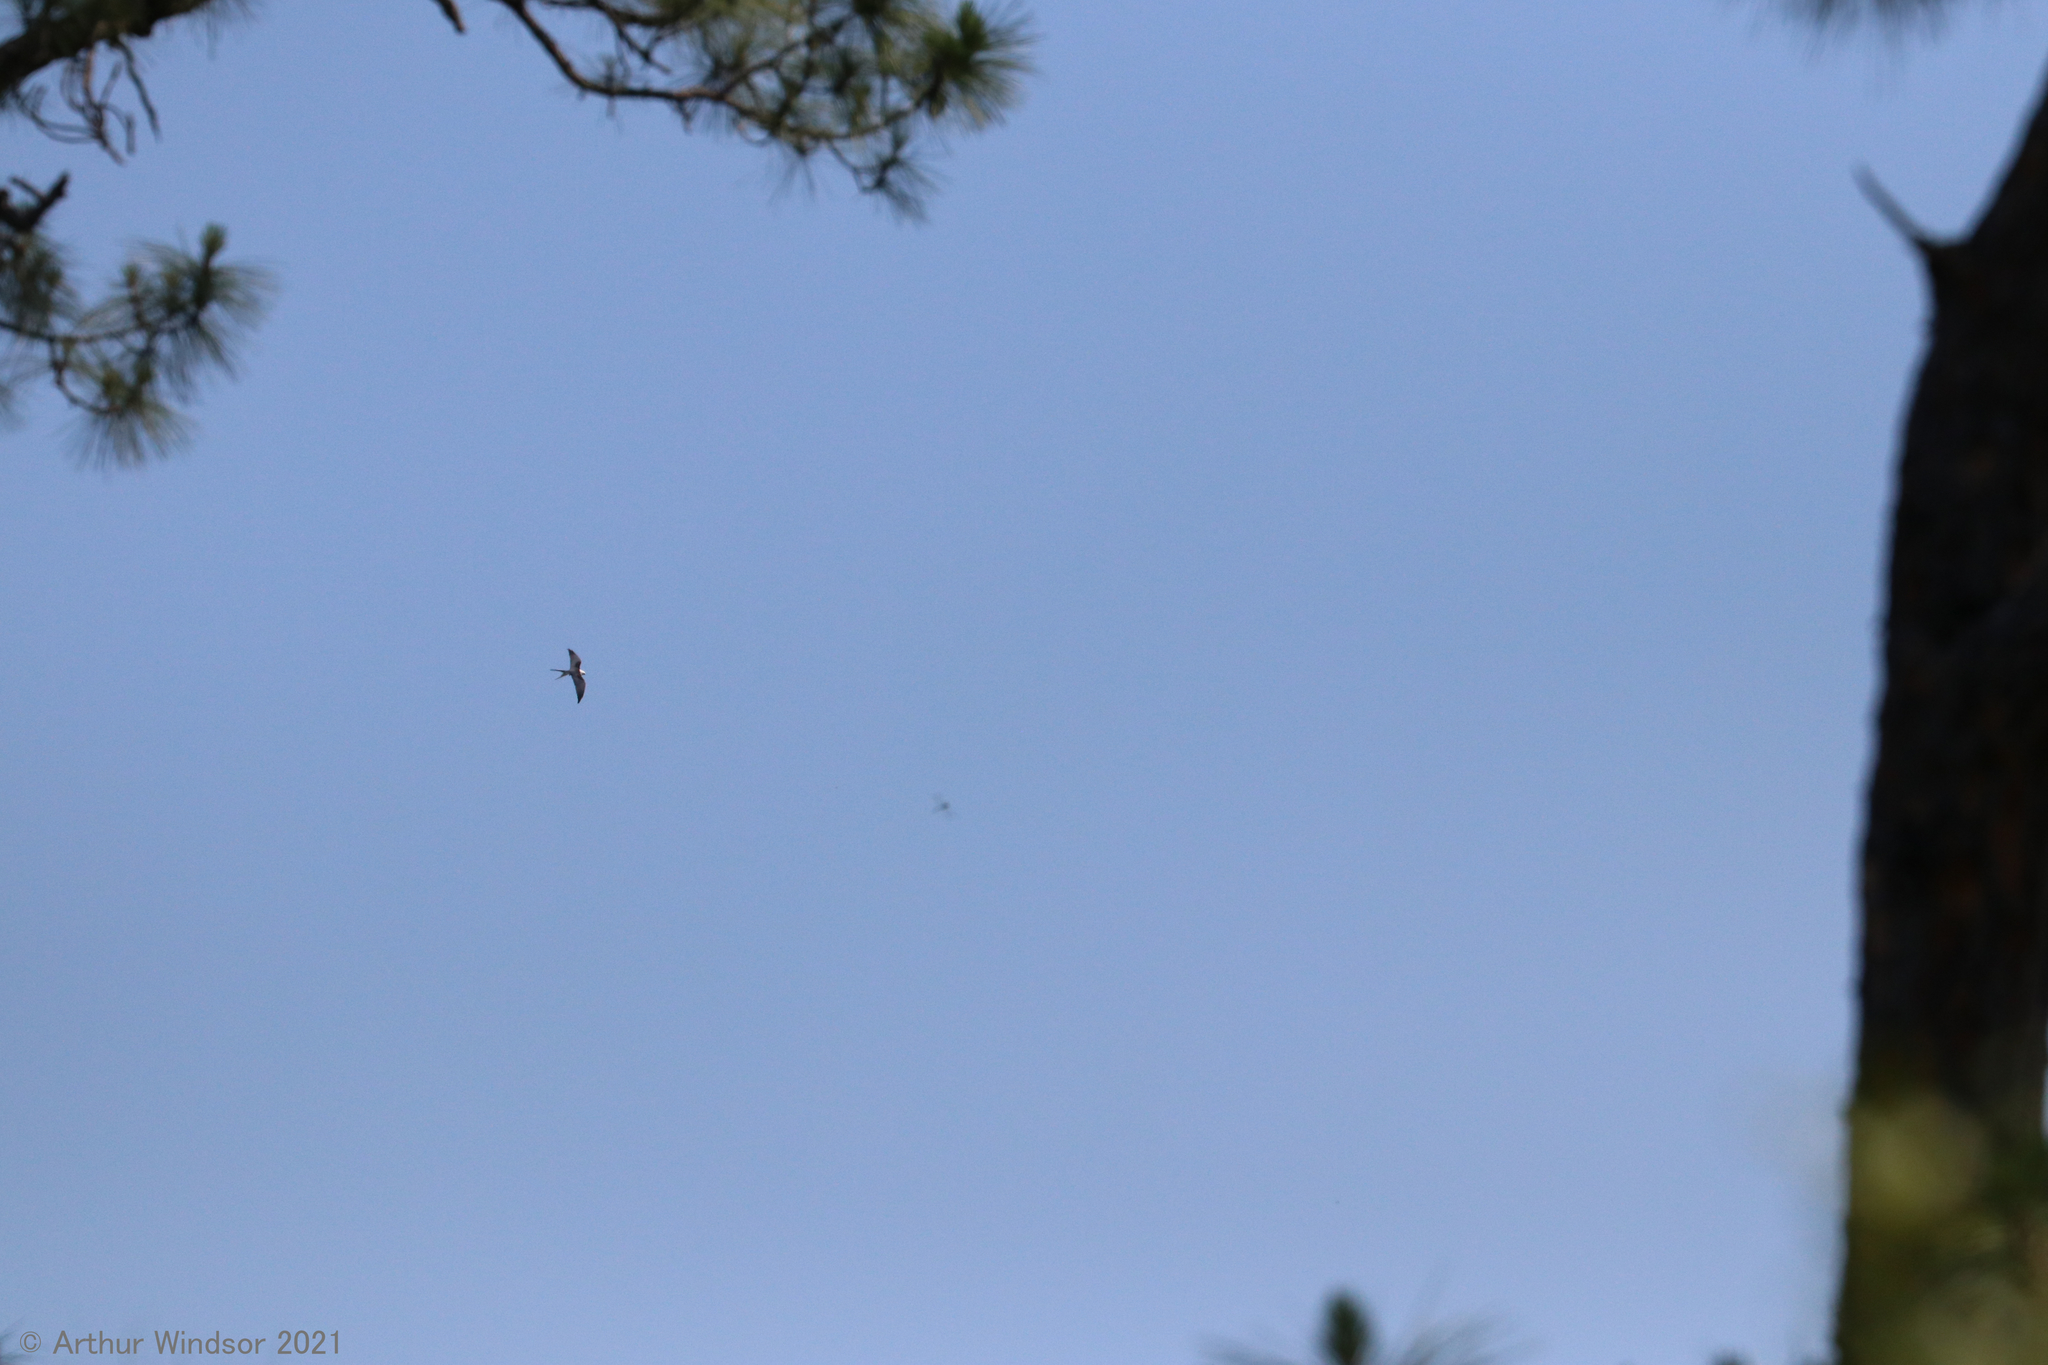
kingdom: Animalia
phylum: Chordata
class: Aves
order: Accipitriformes
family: Accipitridae
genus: Elanoides
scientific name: Elanoides forficatus
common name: Swallow-tailed kite
